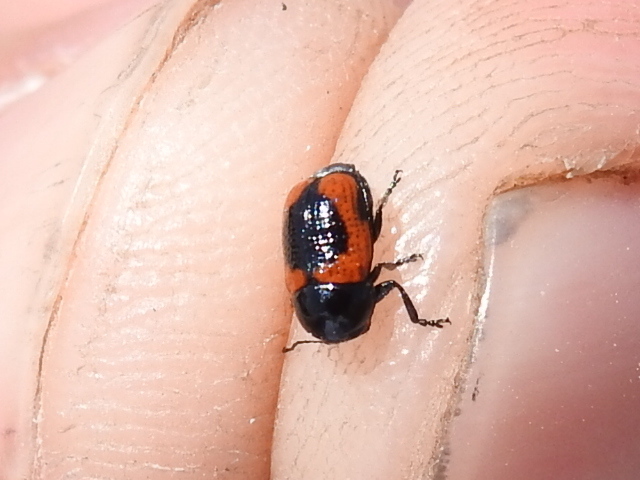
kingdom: Animalia
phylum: Arthropoda
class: Insecta
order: Coleoptera
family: Chrysomelidae
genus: Cryptocephalus
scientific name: Cryptocephalus notatus
